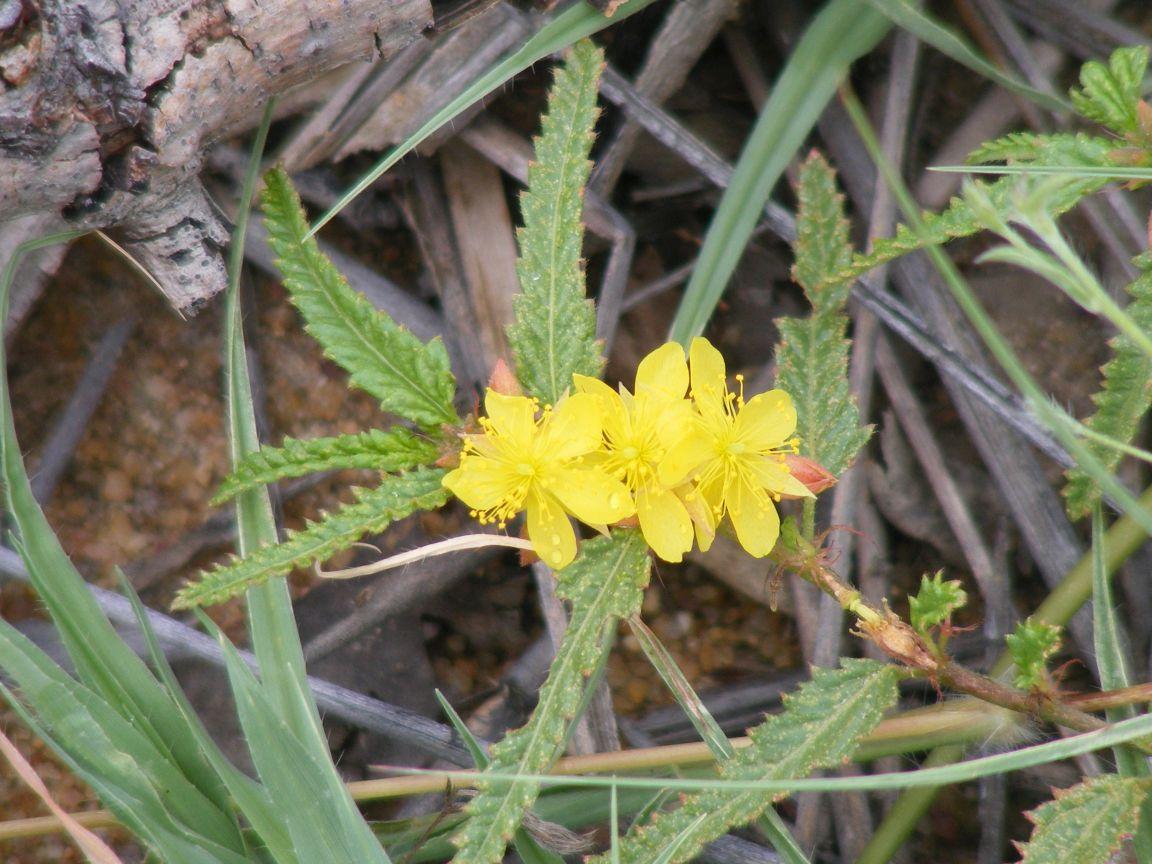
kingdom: Plantae
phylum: Tracheophyta
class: Magnoliopsida
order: Malvales
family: Malvaceae
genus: Corchorus
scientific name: Corchorus asplenifolius
